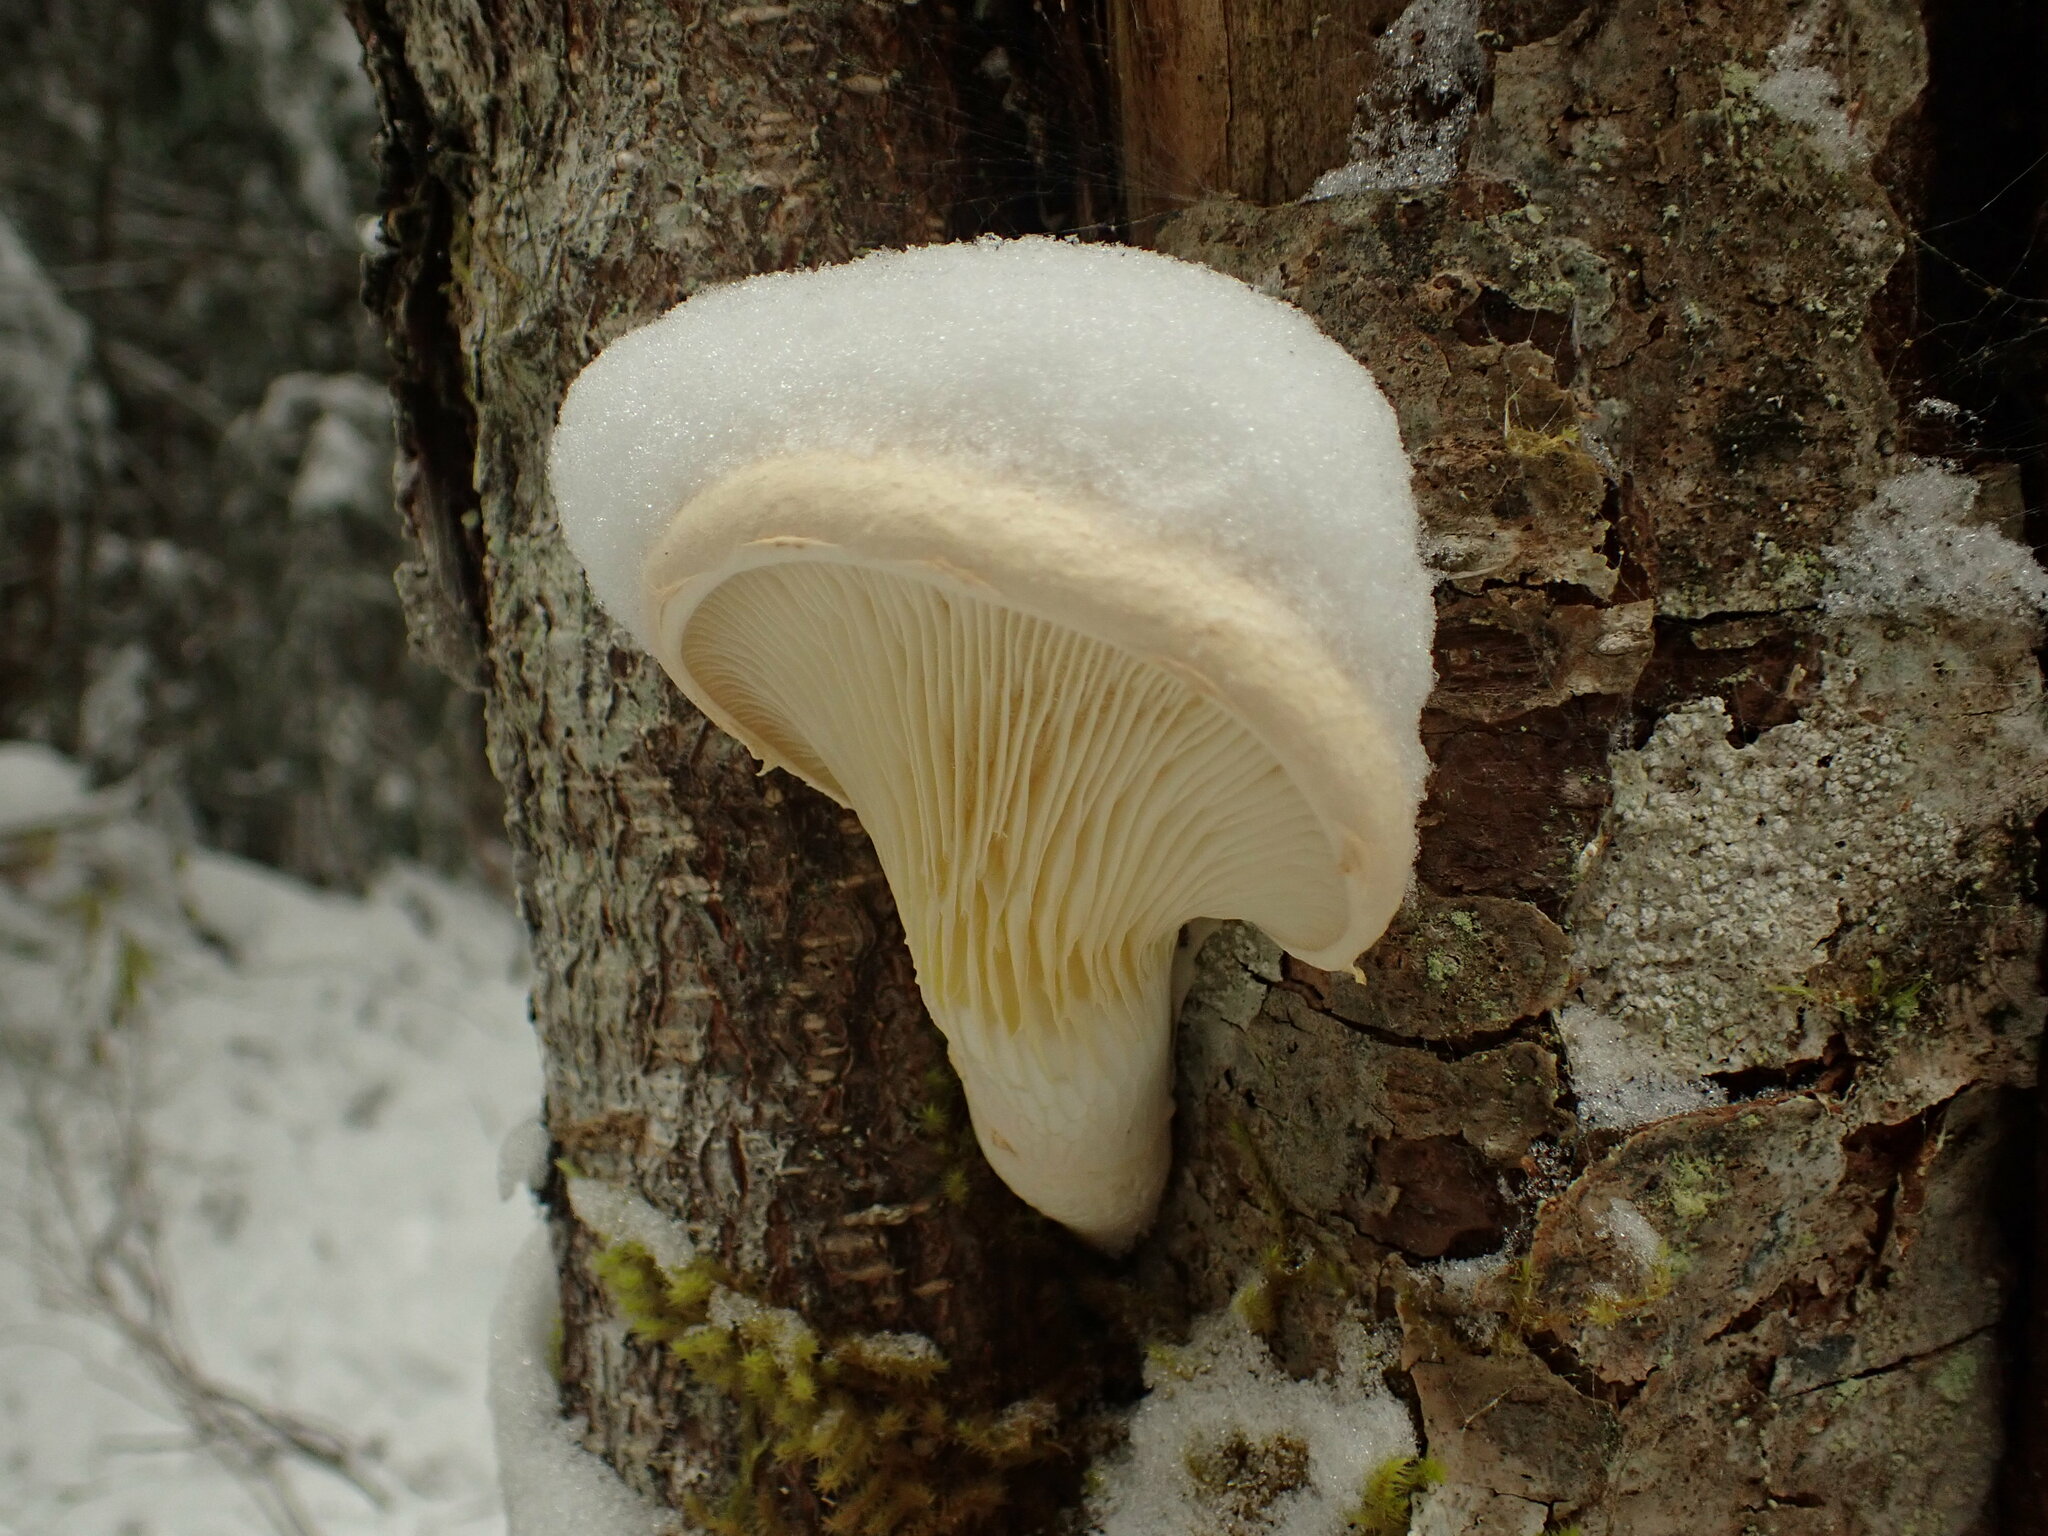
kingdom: Fungi
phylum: Basidiomycota
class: Agaricomycetes
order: Agaricales
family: Pleurotaceae
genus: Pleurotus
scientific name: Pleurotus dryinus
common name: Veiled oyster
